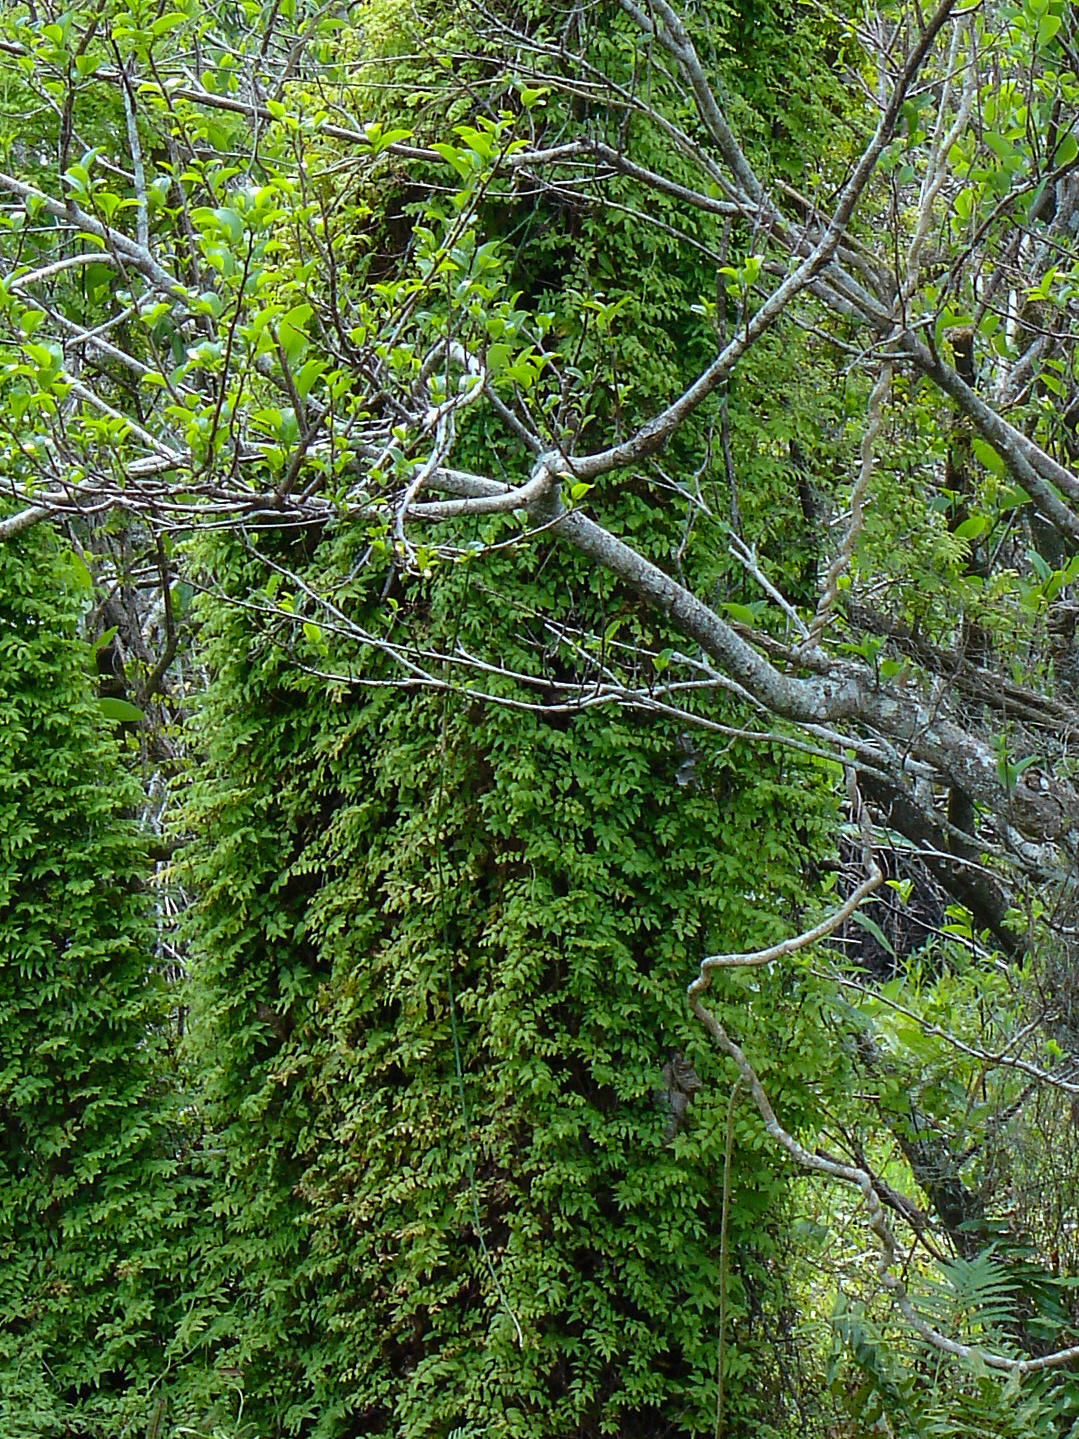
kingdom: Plantae
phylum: Tracheophyta
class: Polypodiopsida
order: Schizaeales
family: Lygodiaceae
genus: Lygodium
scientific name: Lygodium microphyllum
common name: Small-leaf climbing fern
